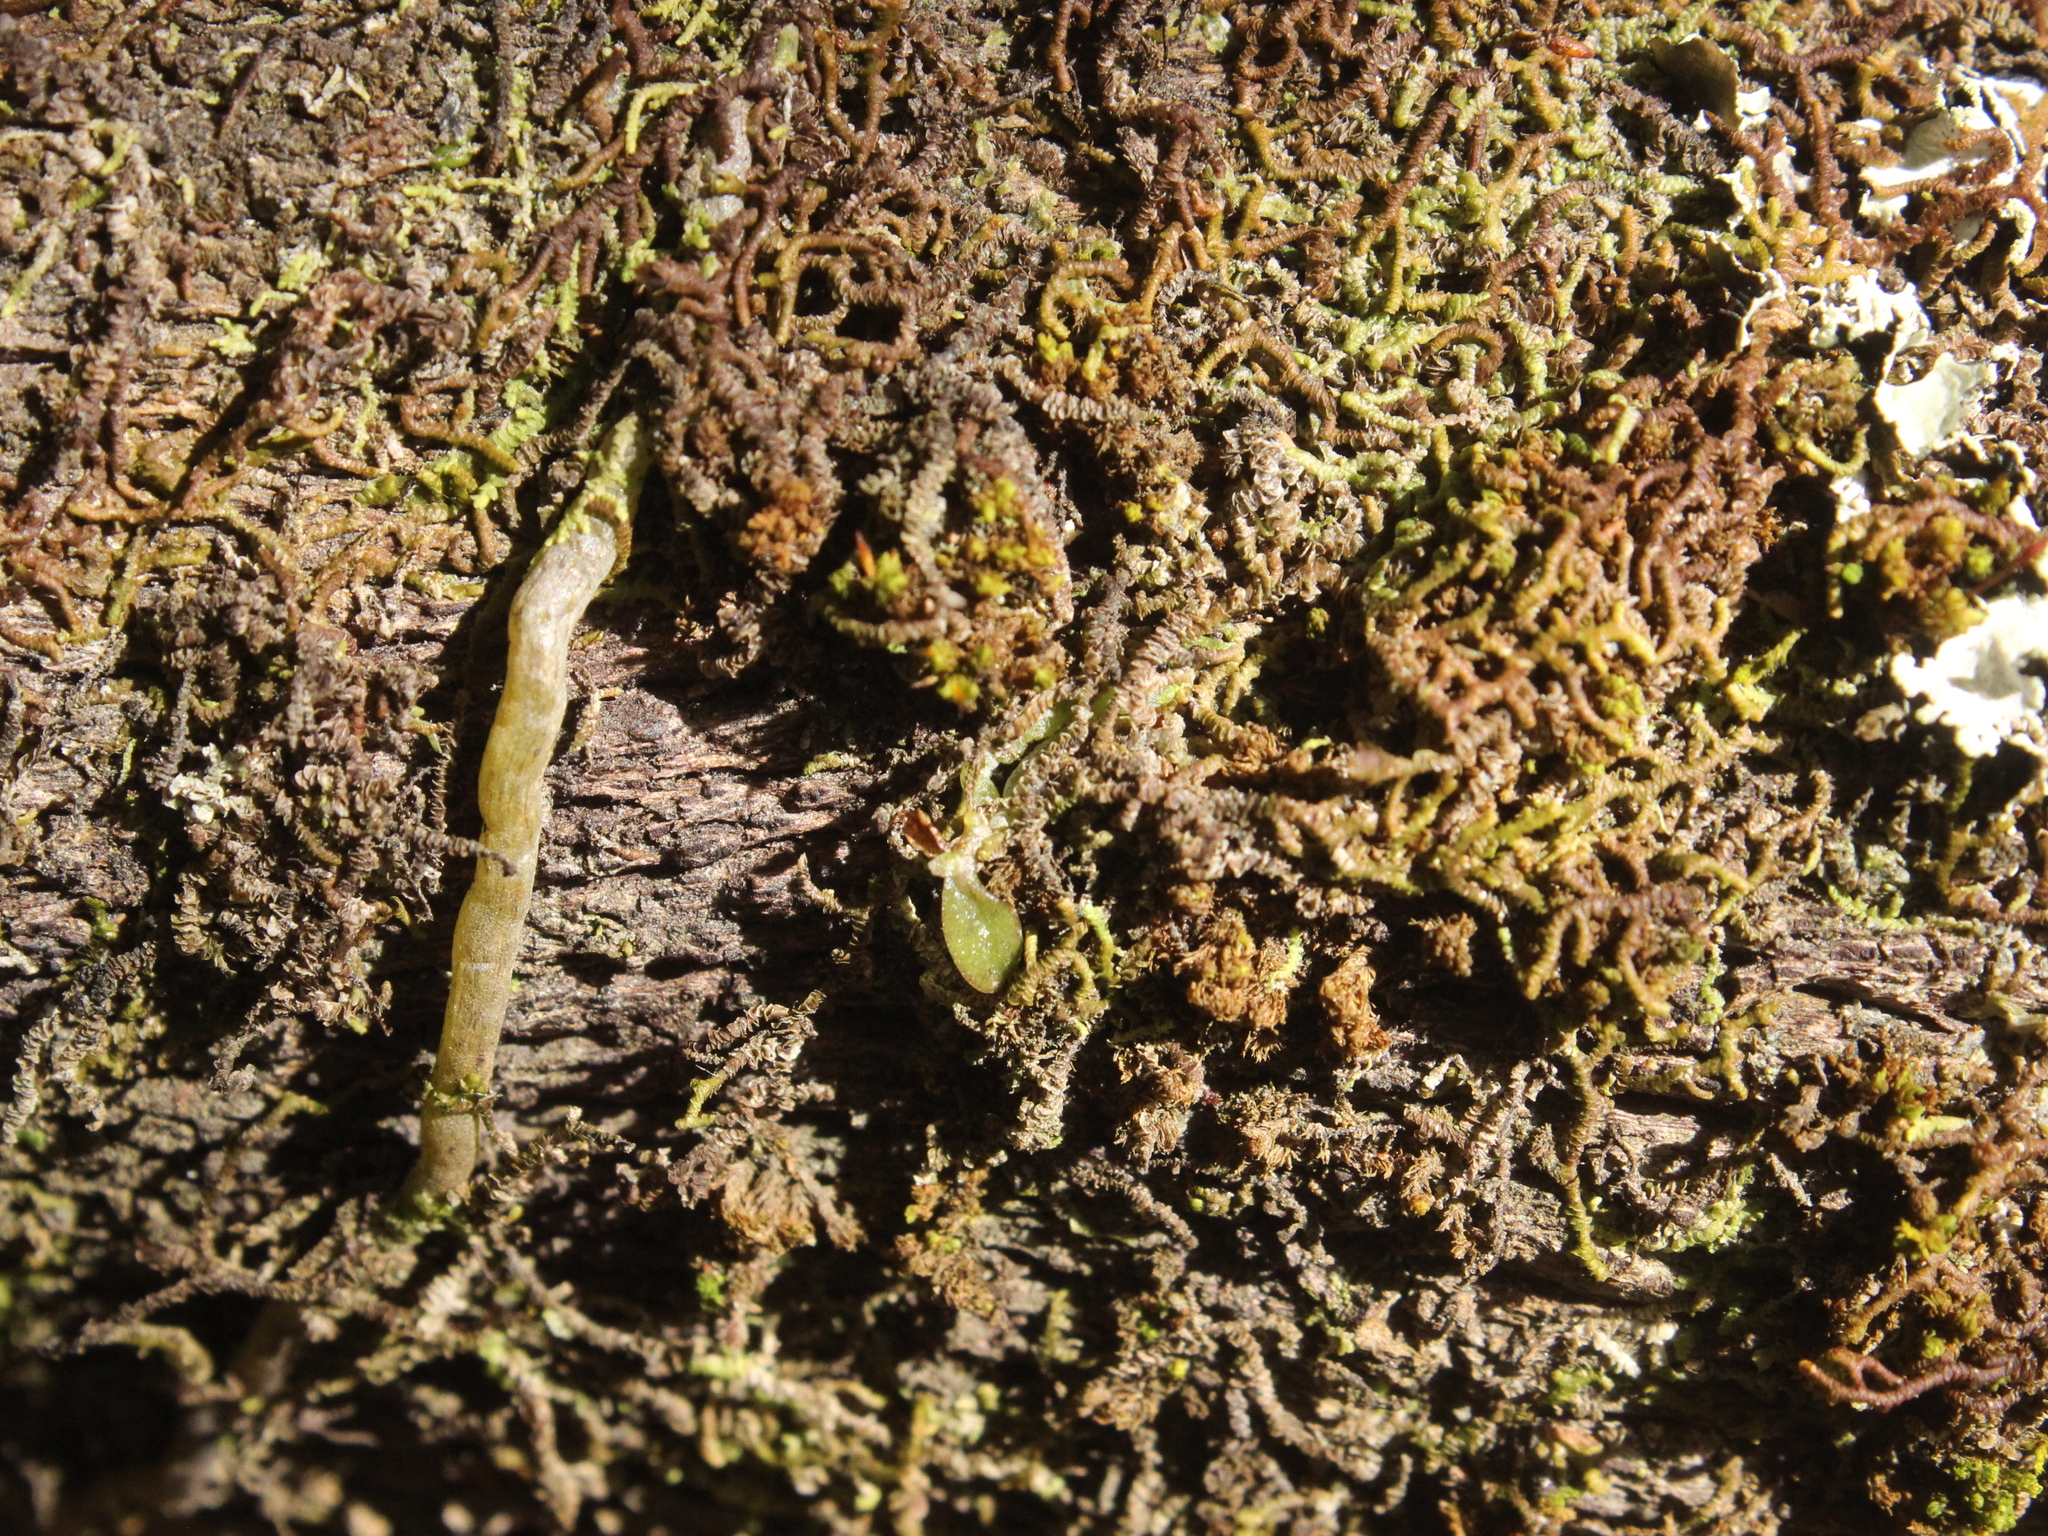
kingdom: Plantae
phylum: Tracheophyta
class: Liliopsida
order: Asparagales
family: Orchidaceae
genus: Drymoanthus
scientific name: Drymoanthus adversus
